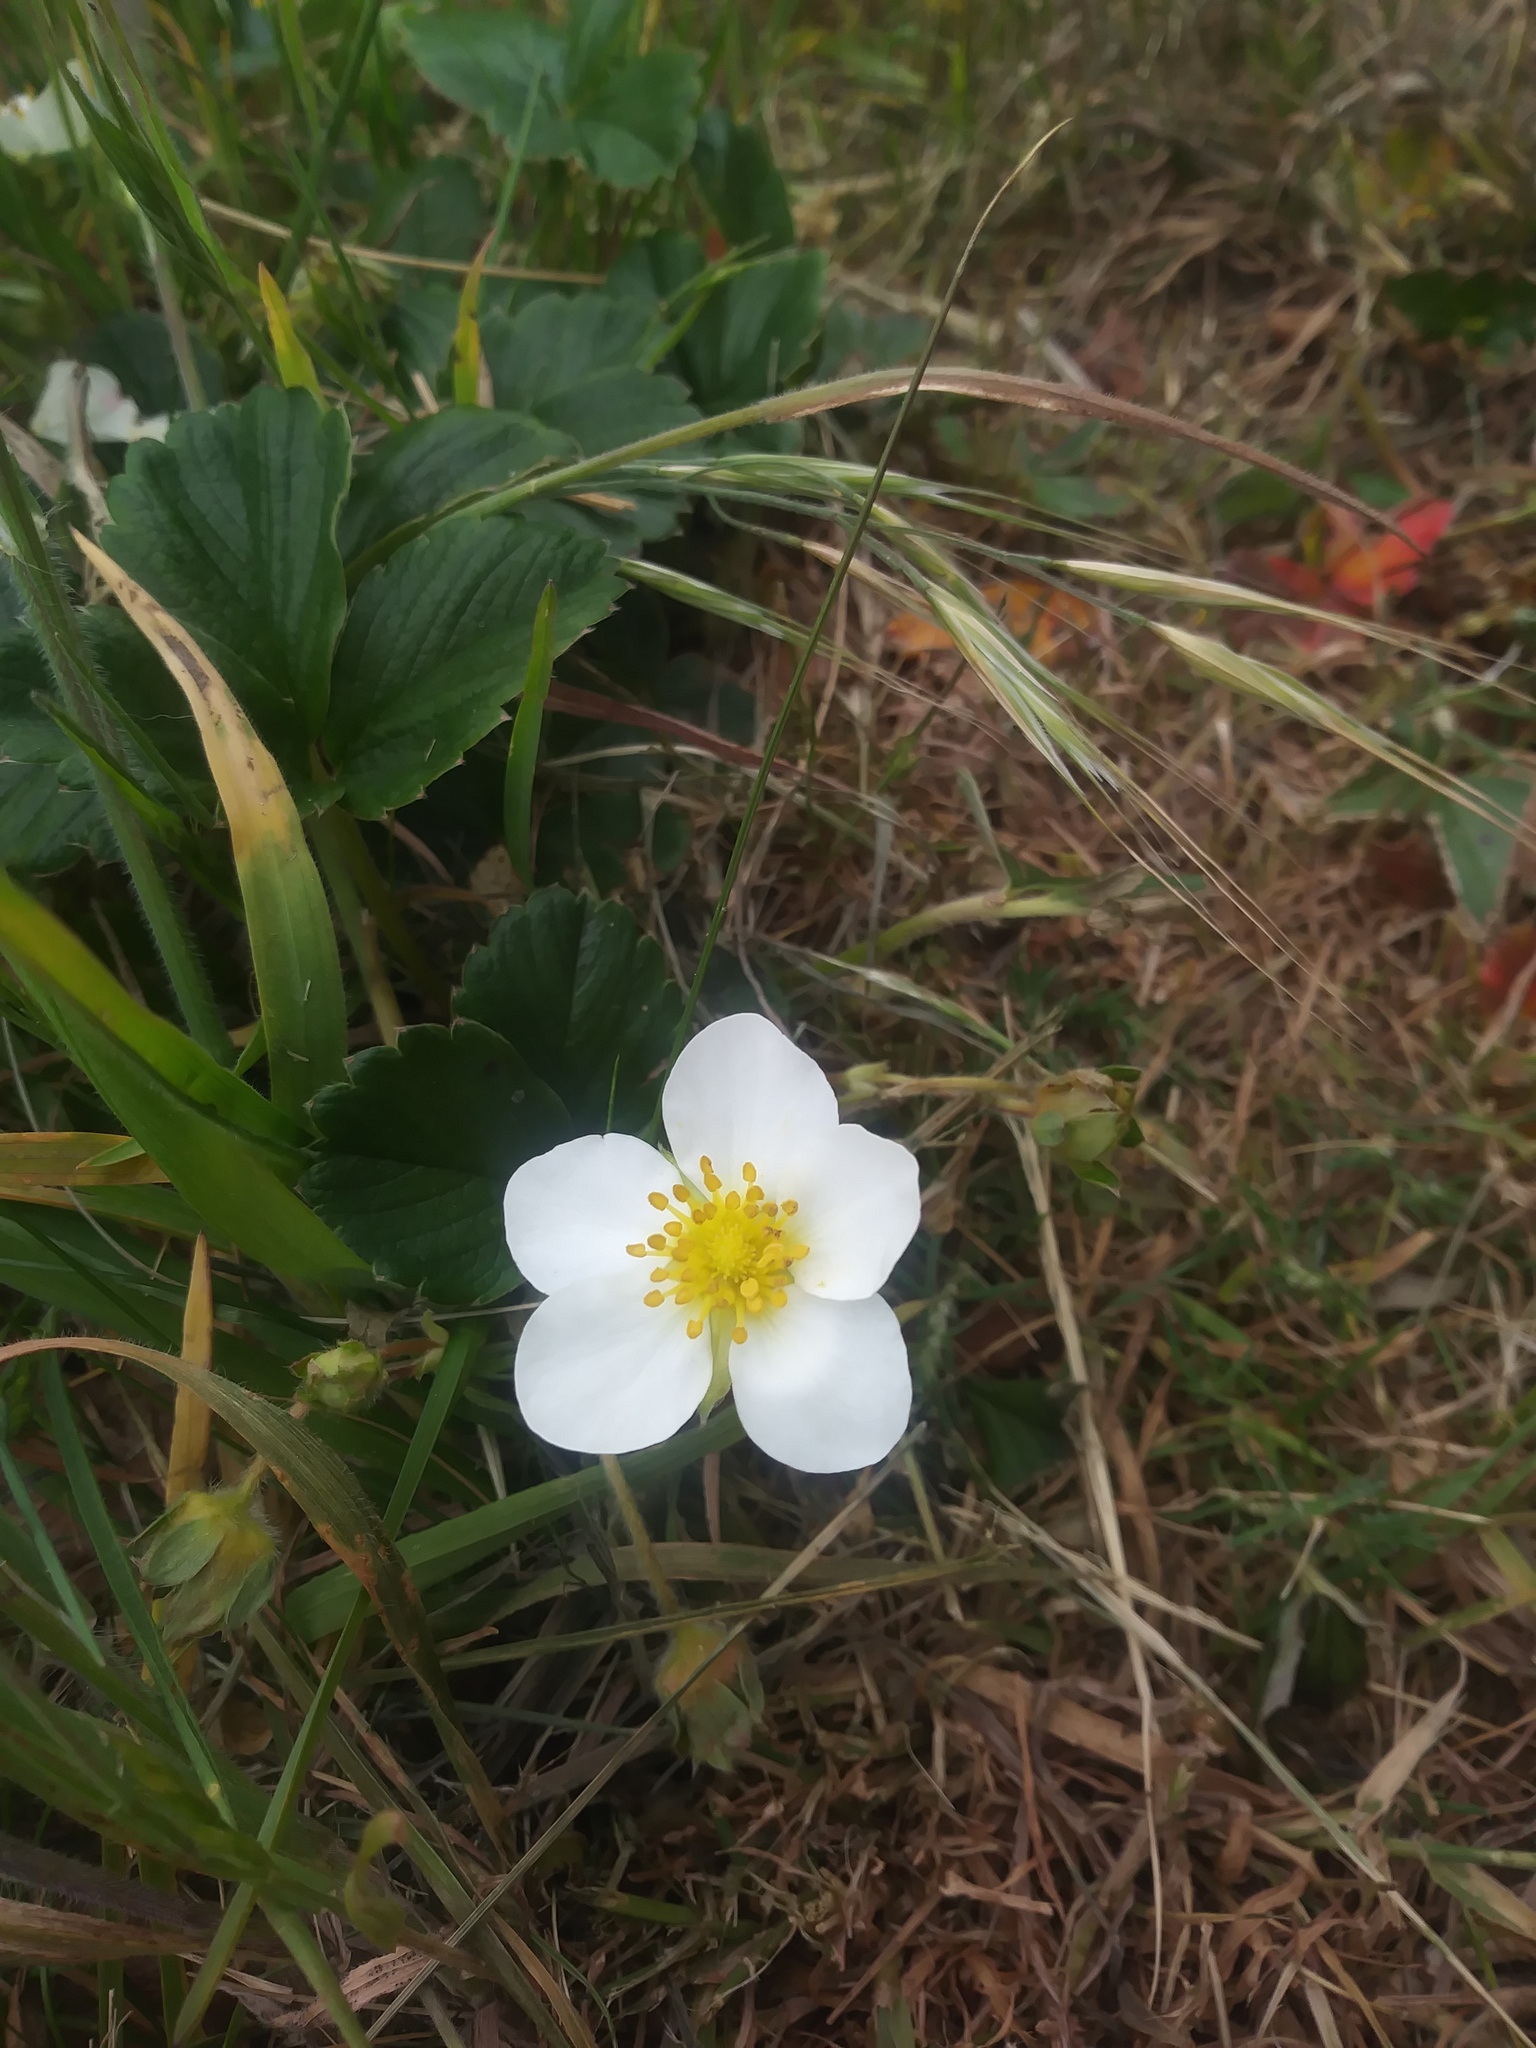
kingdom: Plantae
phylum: Tracheophyta
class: Magnoliopsida
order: Rosales
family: Rosaceae
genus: Fragaria
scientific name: Fragaria chiloensis
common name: Beach strawberry
